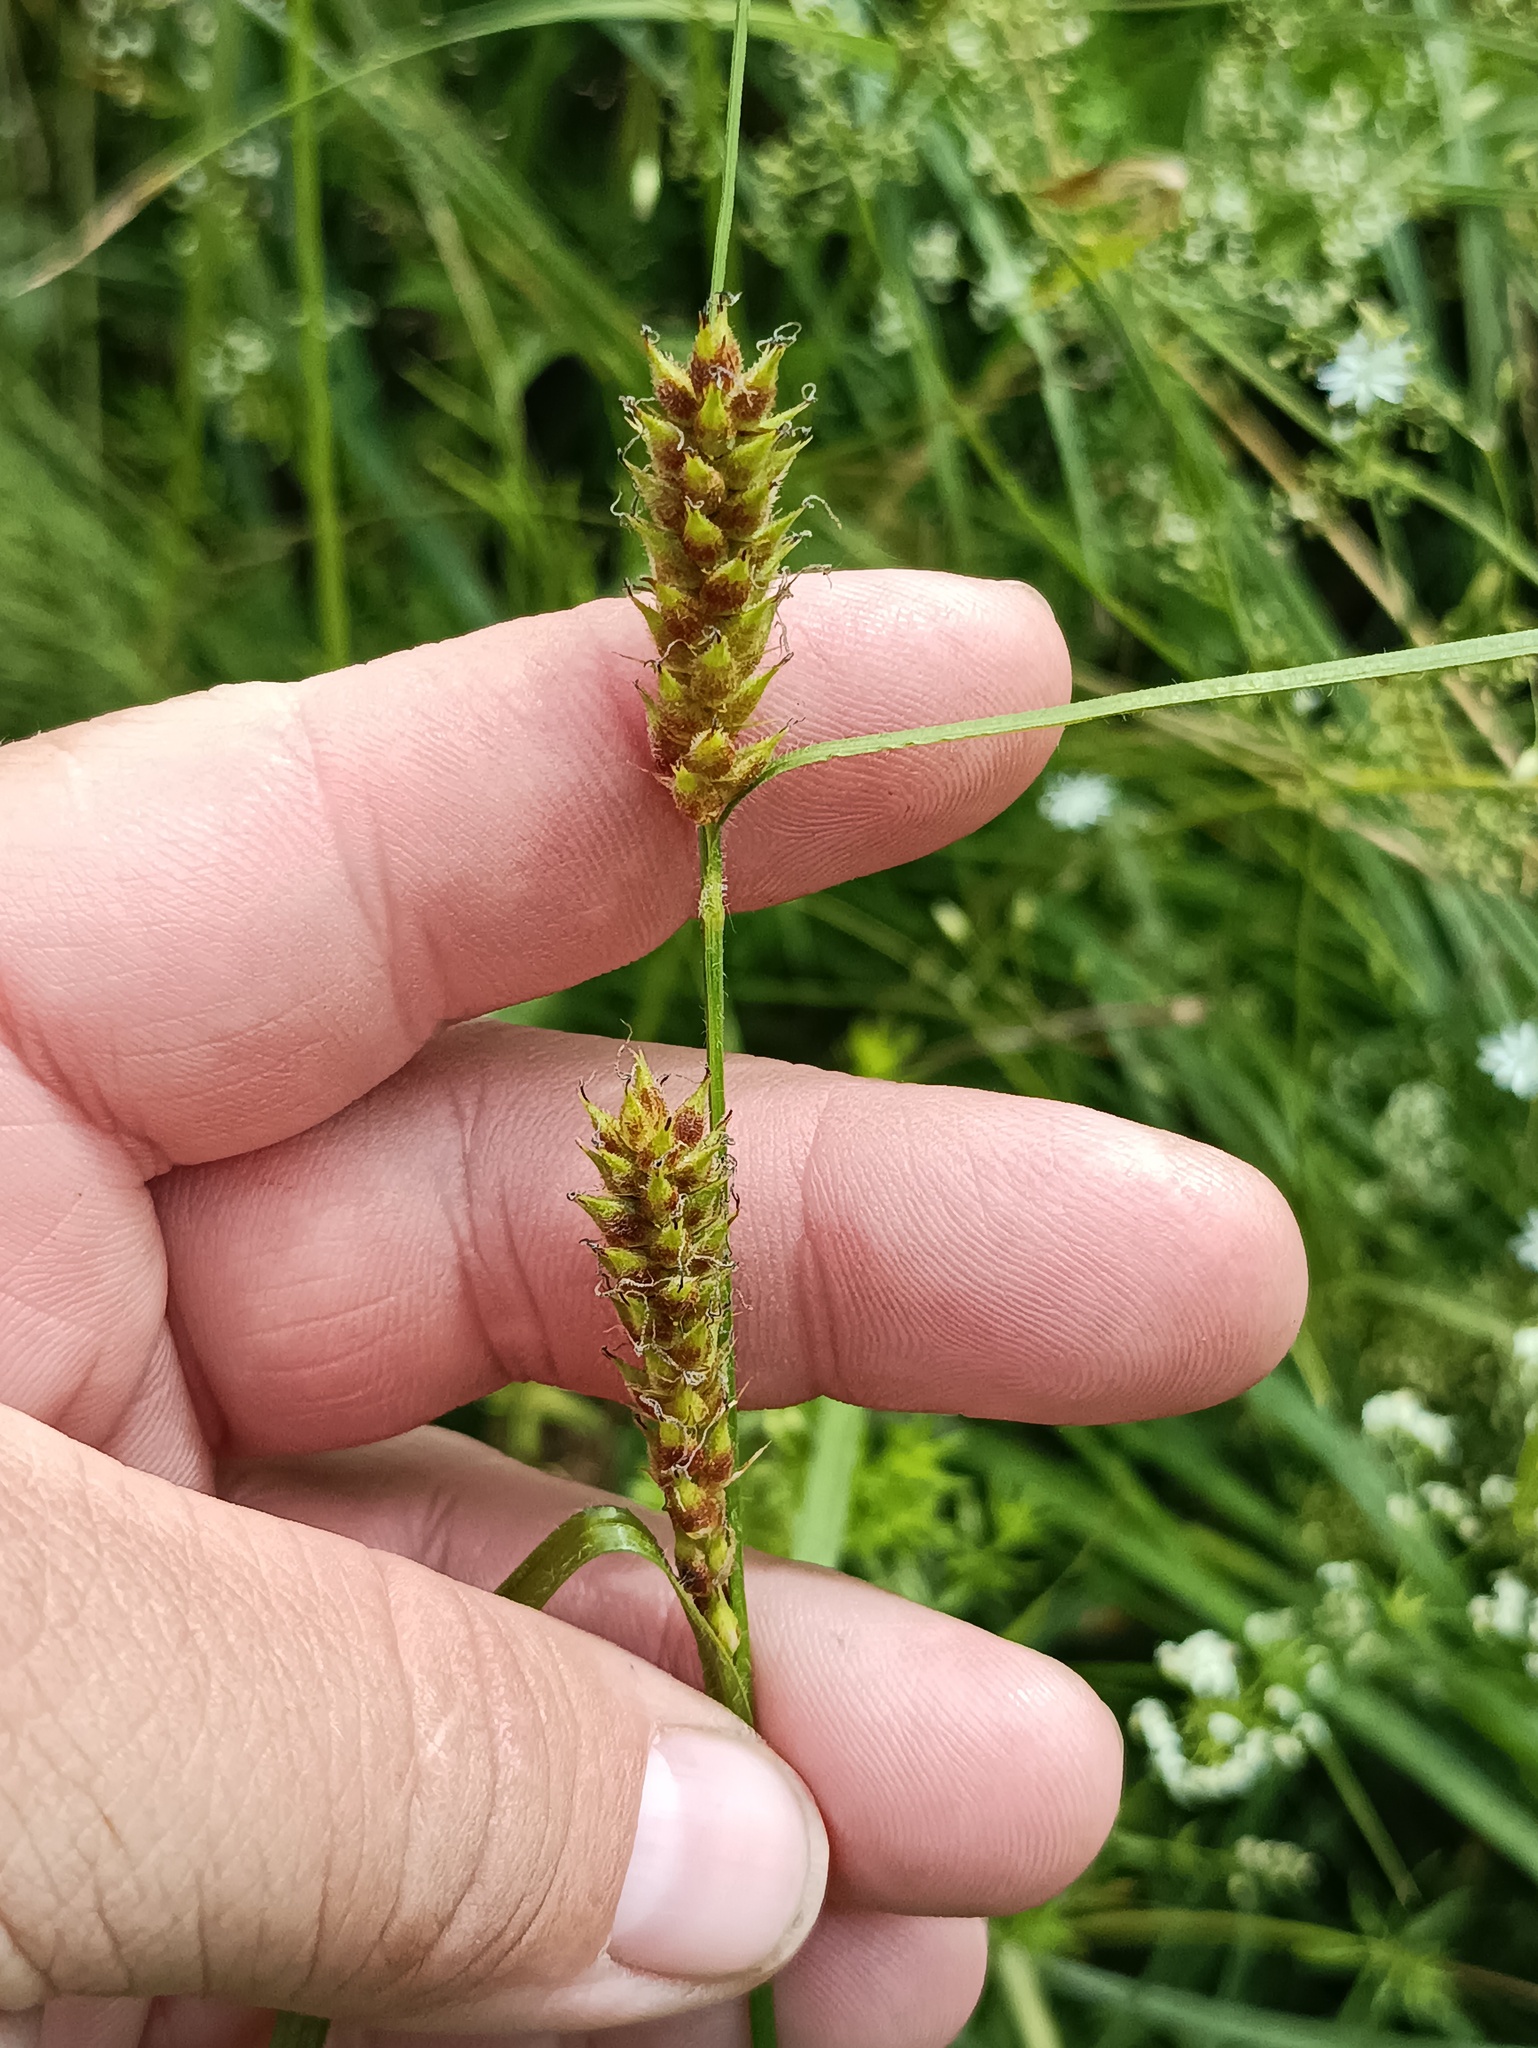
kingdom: Plantae
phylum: Tracheophyta
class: Liliopsida
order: Poales
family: Cyperaceae
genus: Carex
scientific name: Carex hirta
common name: Hairy sedge
